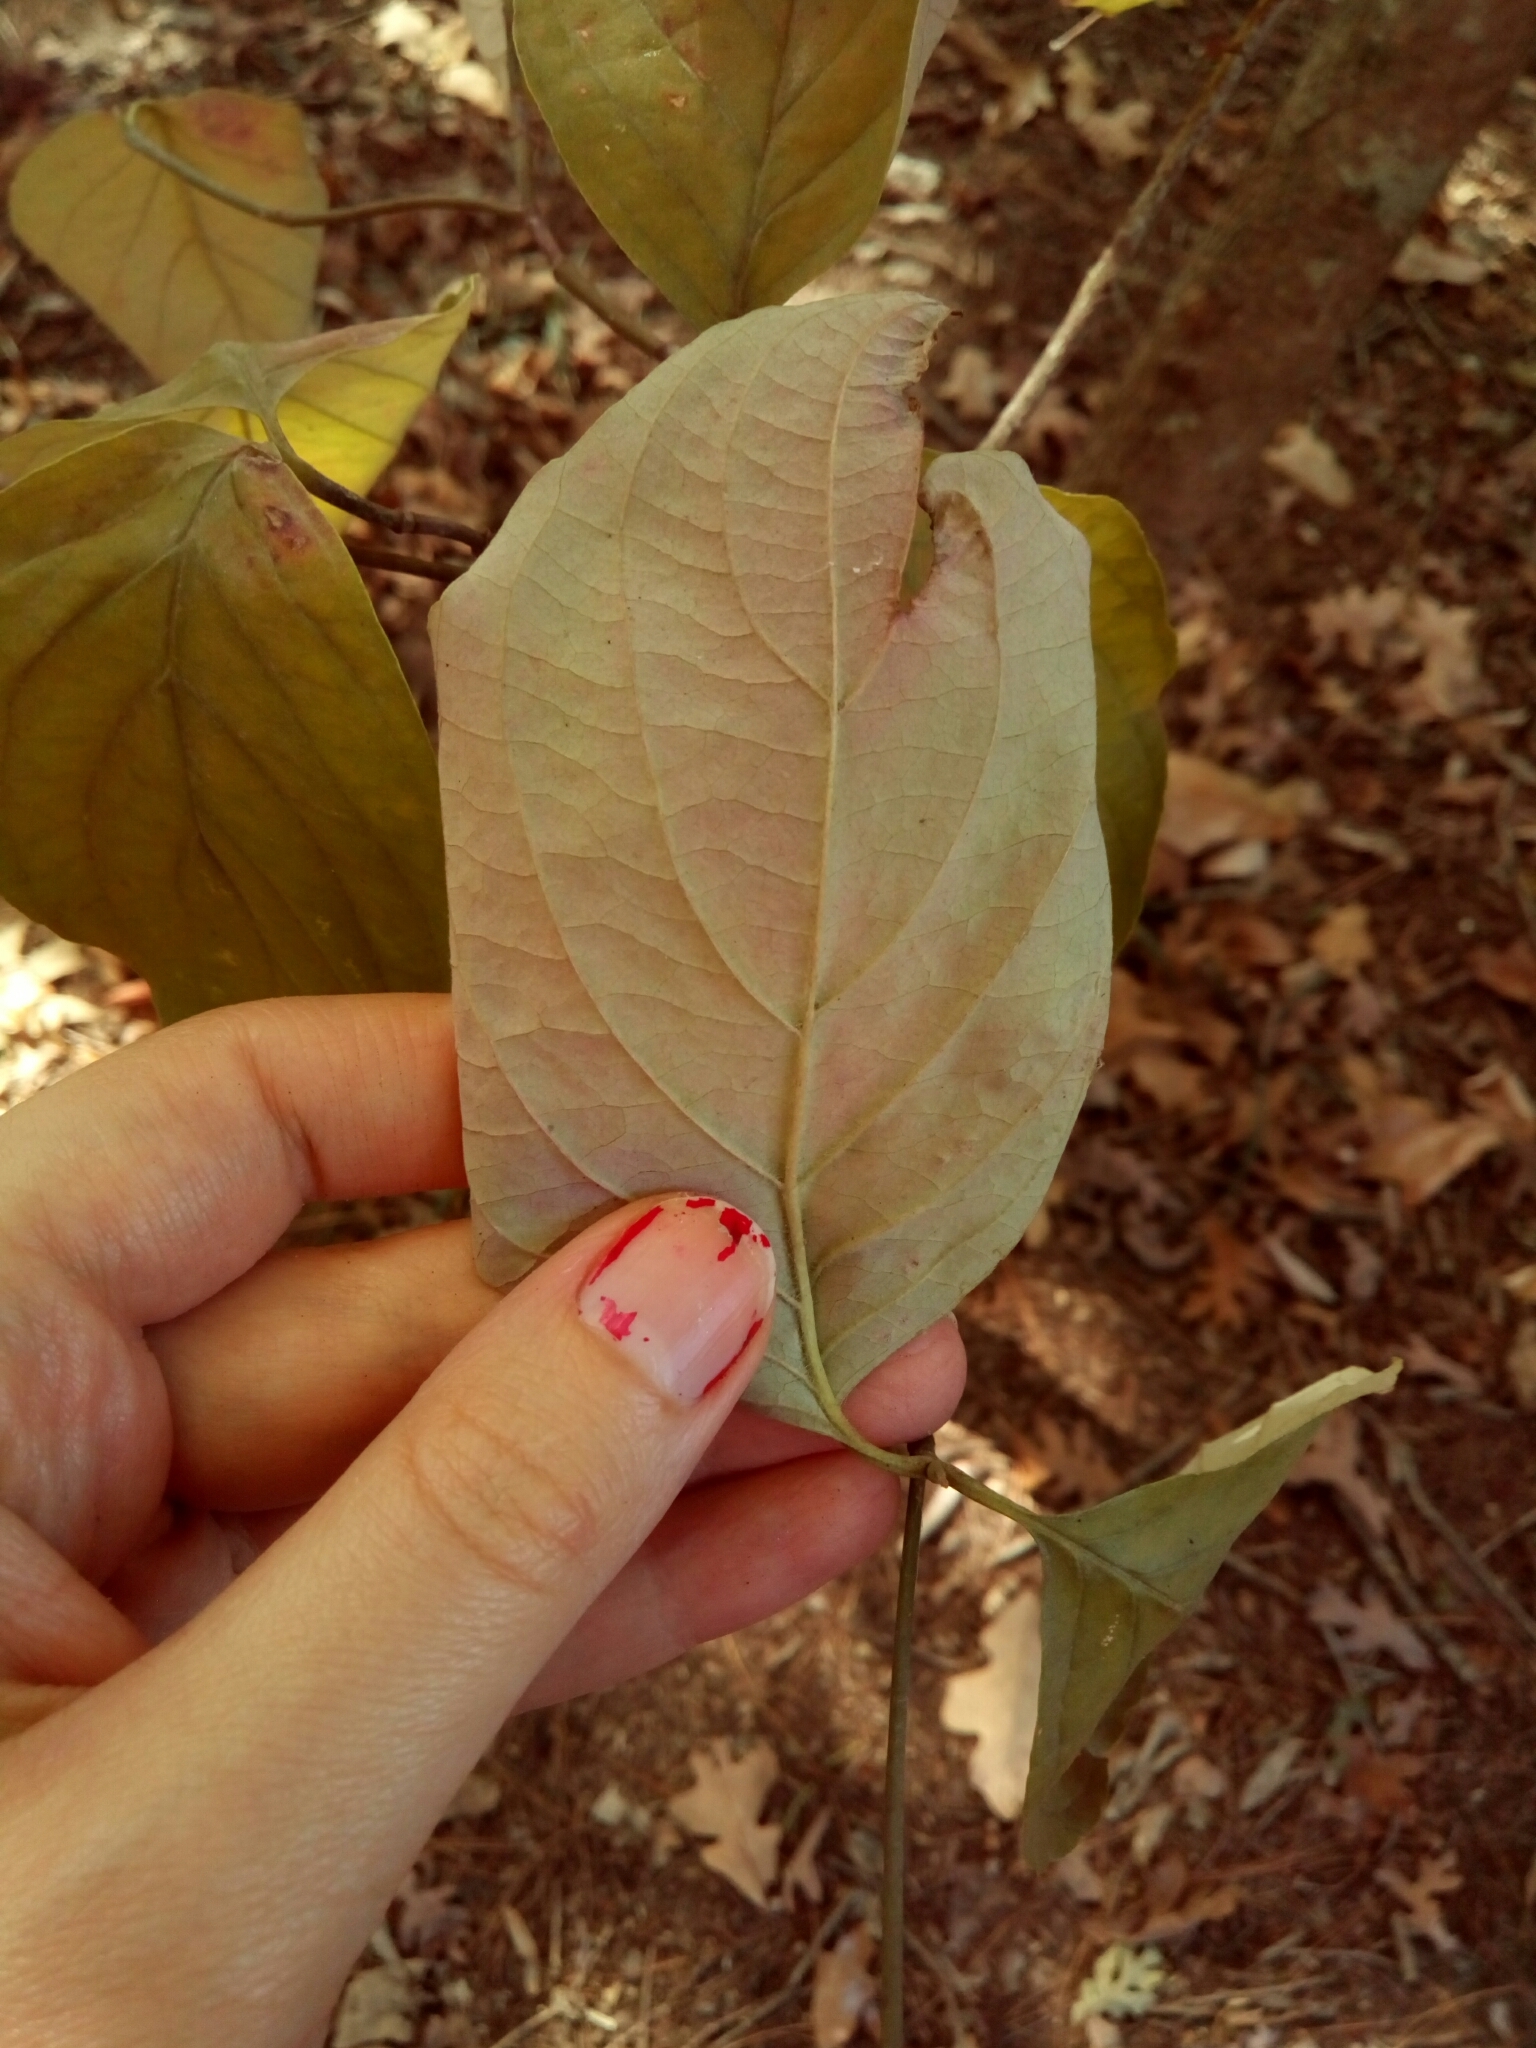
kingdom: Plantae
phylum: Tracheophyta
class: Magnoliopsida
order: Cornales
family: Cornaceae
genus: Cornus
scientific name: Cornus florida
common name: Flowering dogwood
